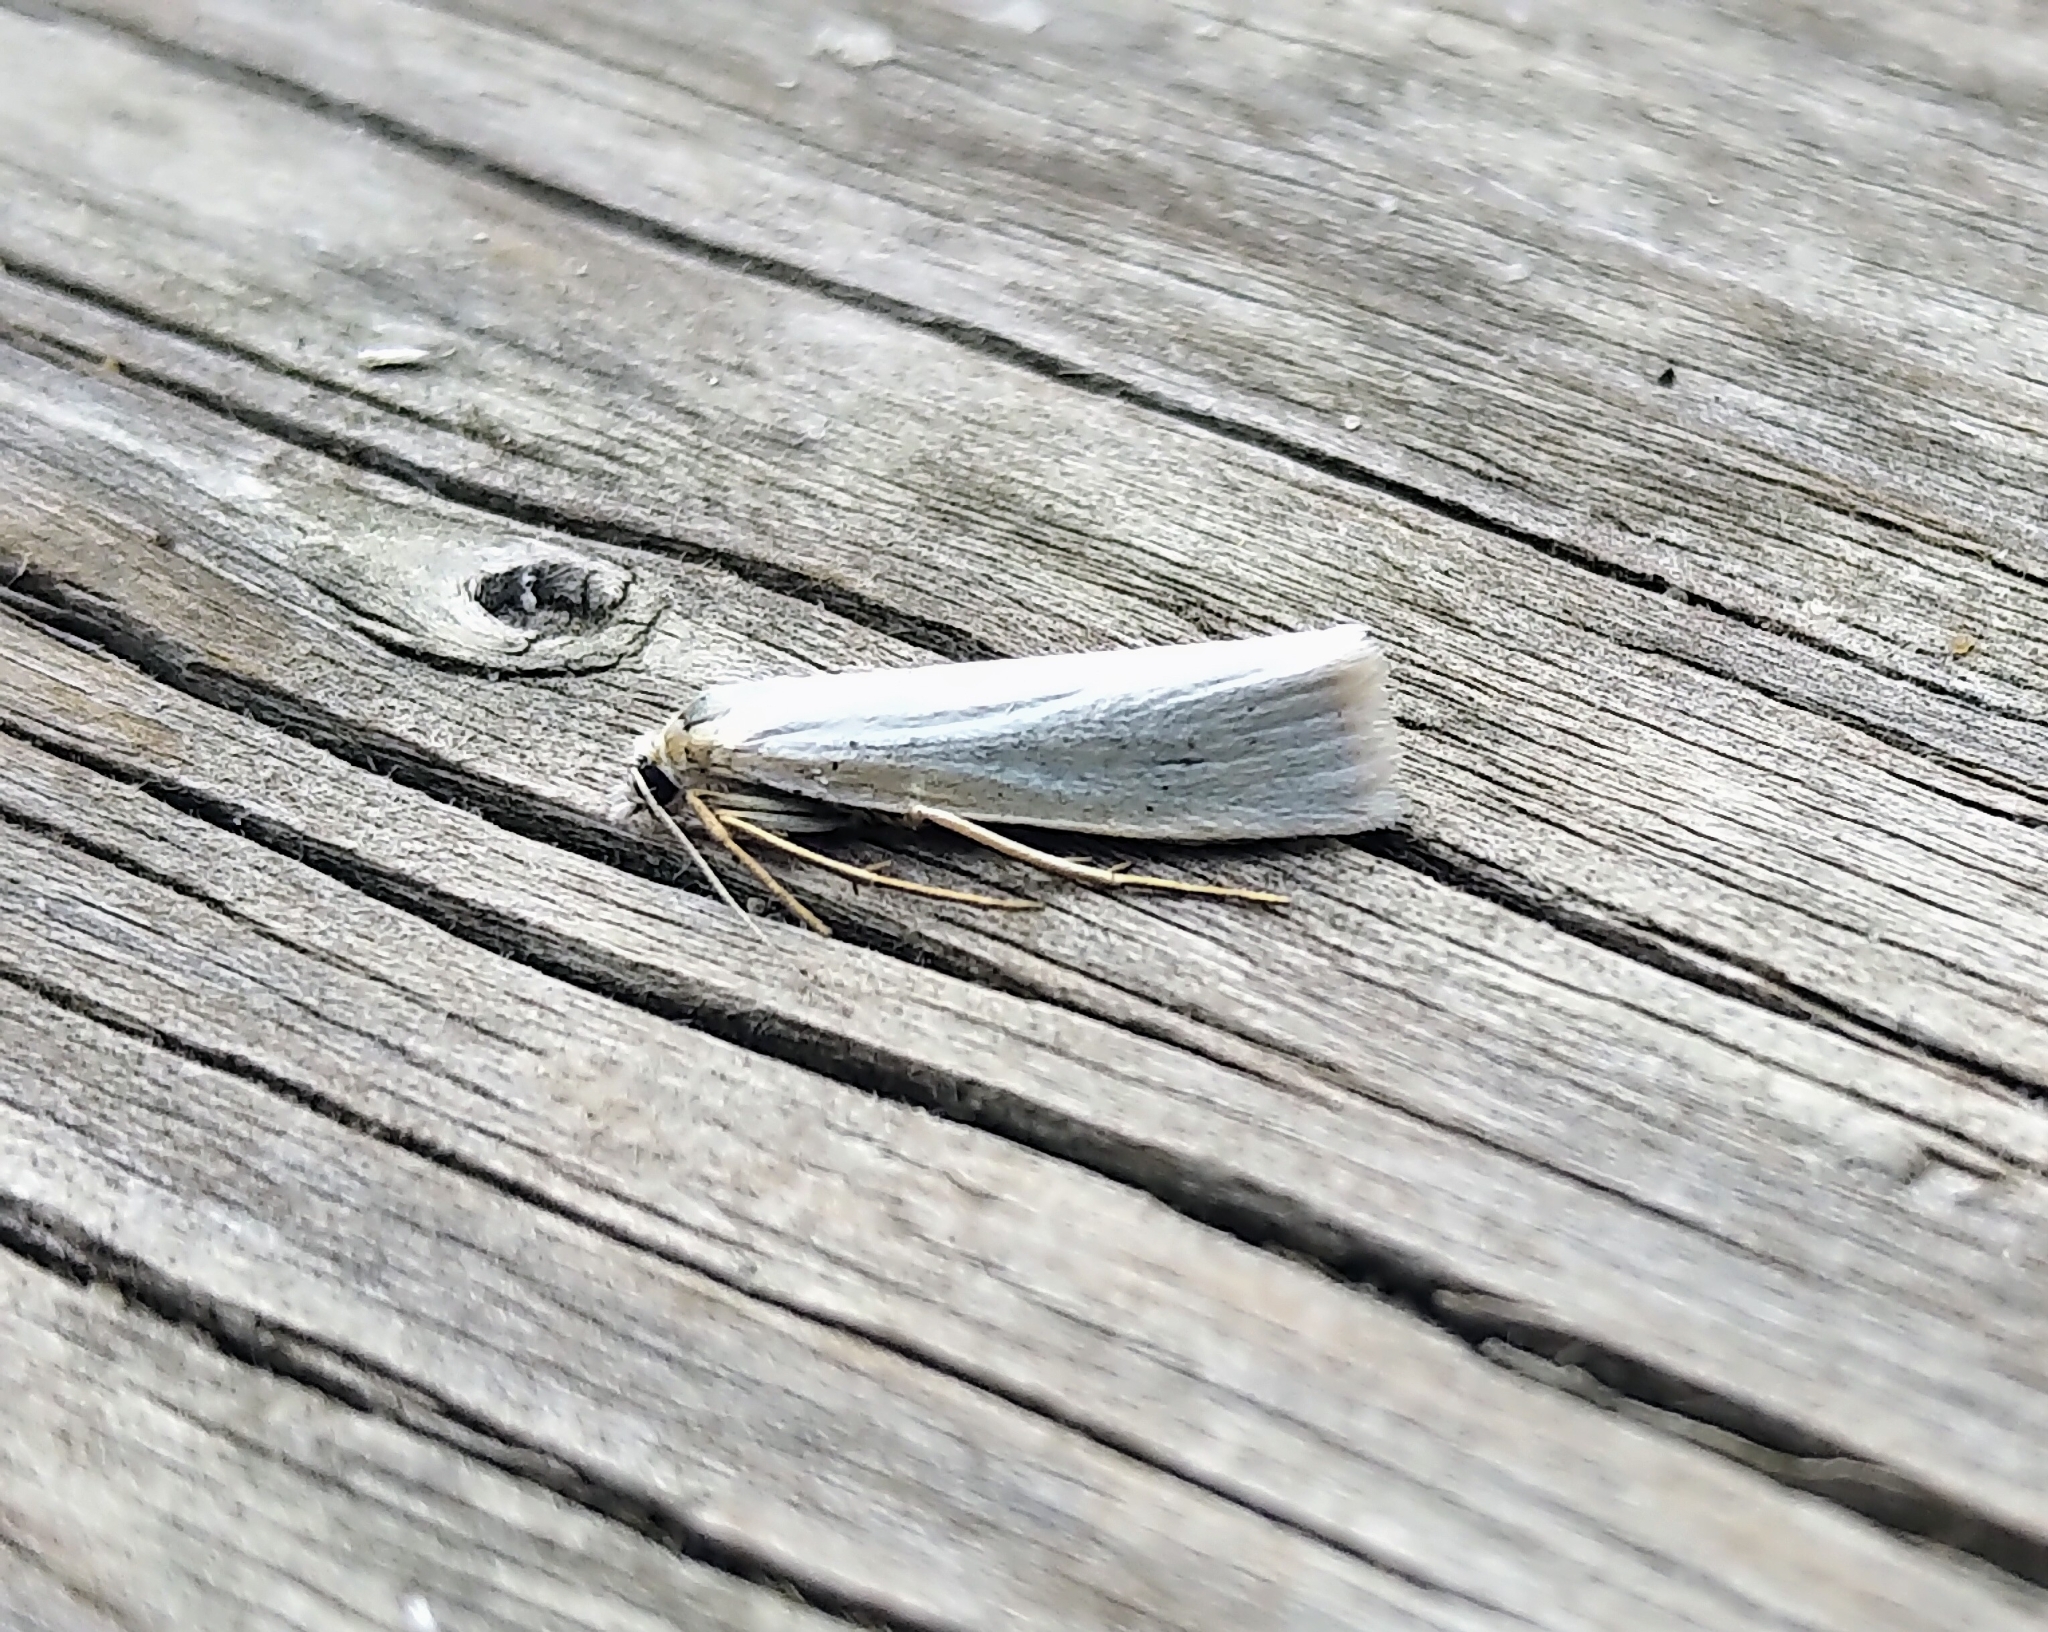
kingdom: Animalia
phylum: Arthropoda
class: Insecta
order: Lepidoptera
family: Crambidae
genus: Crambus
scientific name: Crambus perlellus
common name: Yellow satin veneer
